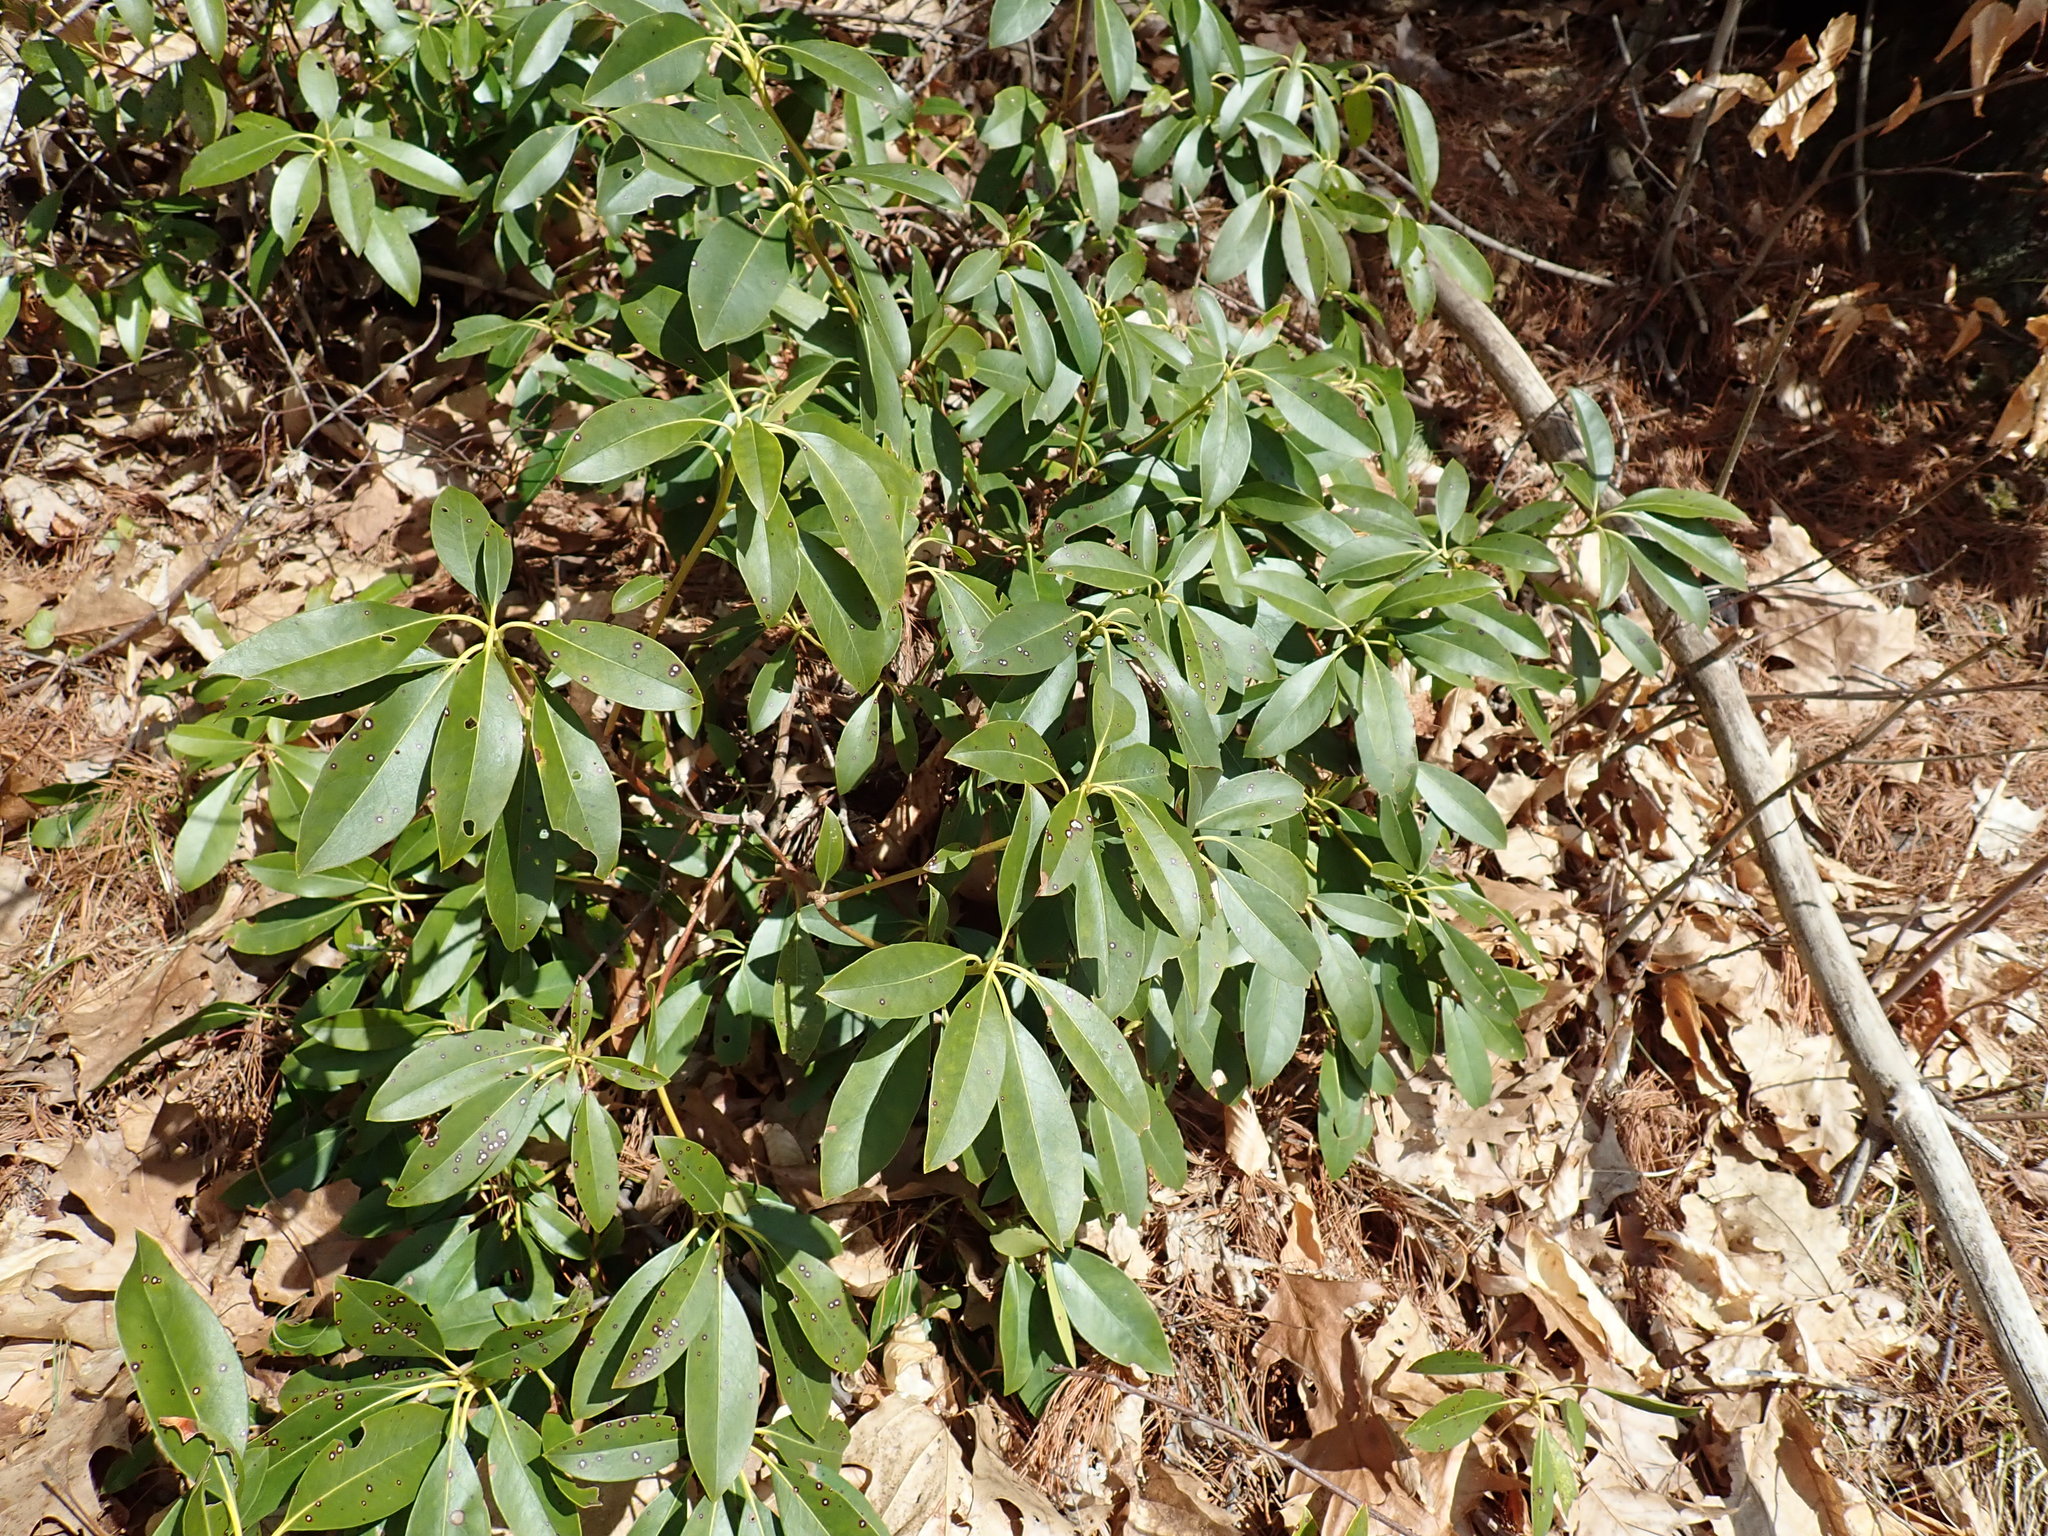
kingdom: Plantae
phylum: Tracheophyta
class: Magnoliopsida
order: Ericales
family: Ericaceae
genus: Kalmia
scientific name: Kalmia latifolia
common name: Mountain-laurel
